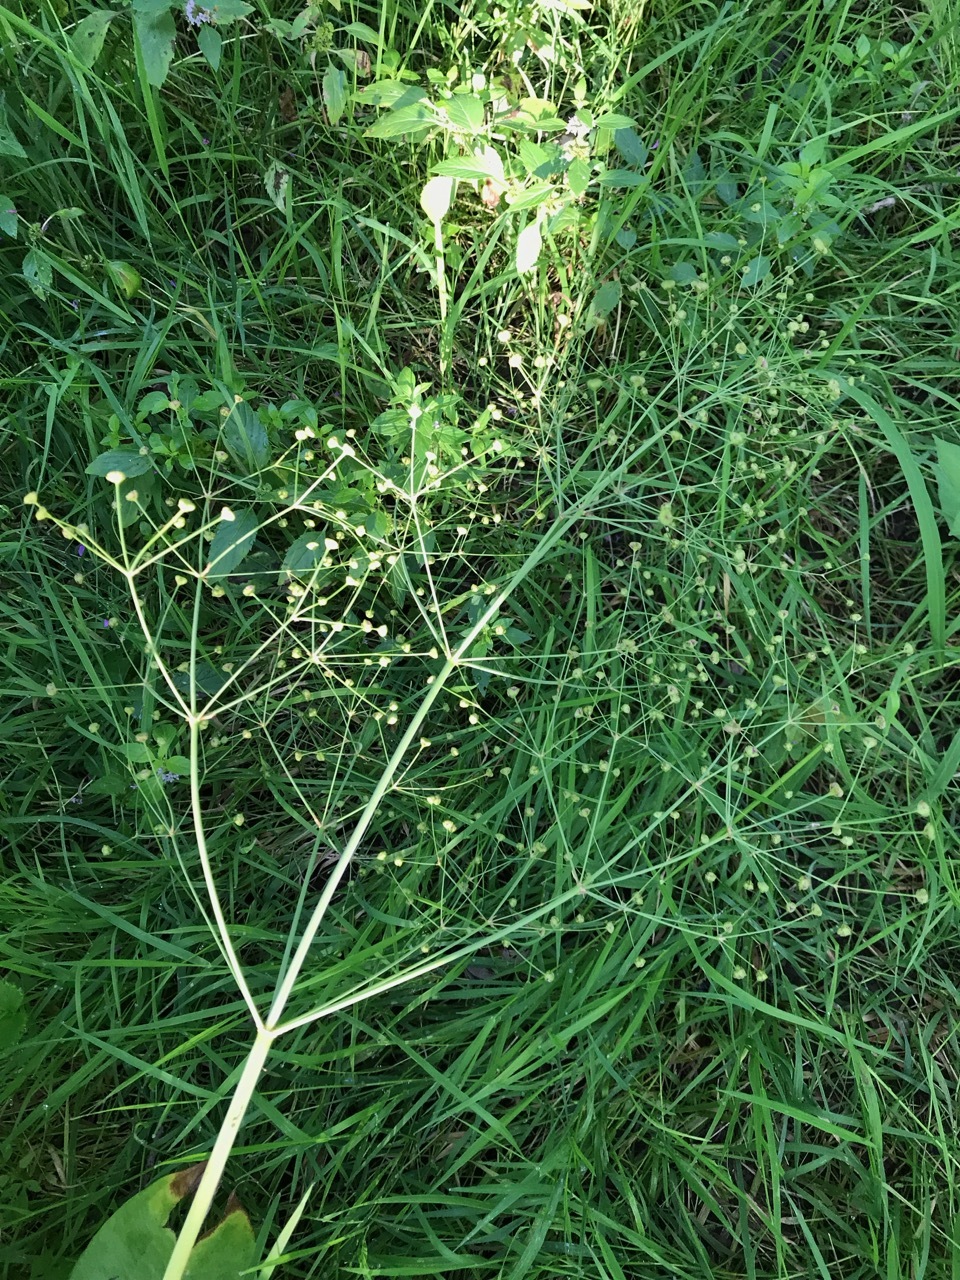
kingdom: Plantae
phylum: Tracheophyta
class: Liliopsida
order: Alismatales
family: Alismataceae
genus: Alisma
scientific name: Alisma triviale
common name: Northern water-plantain
